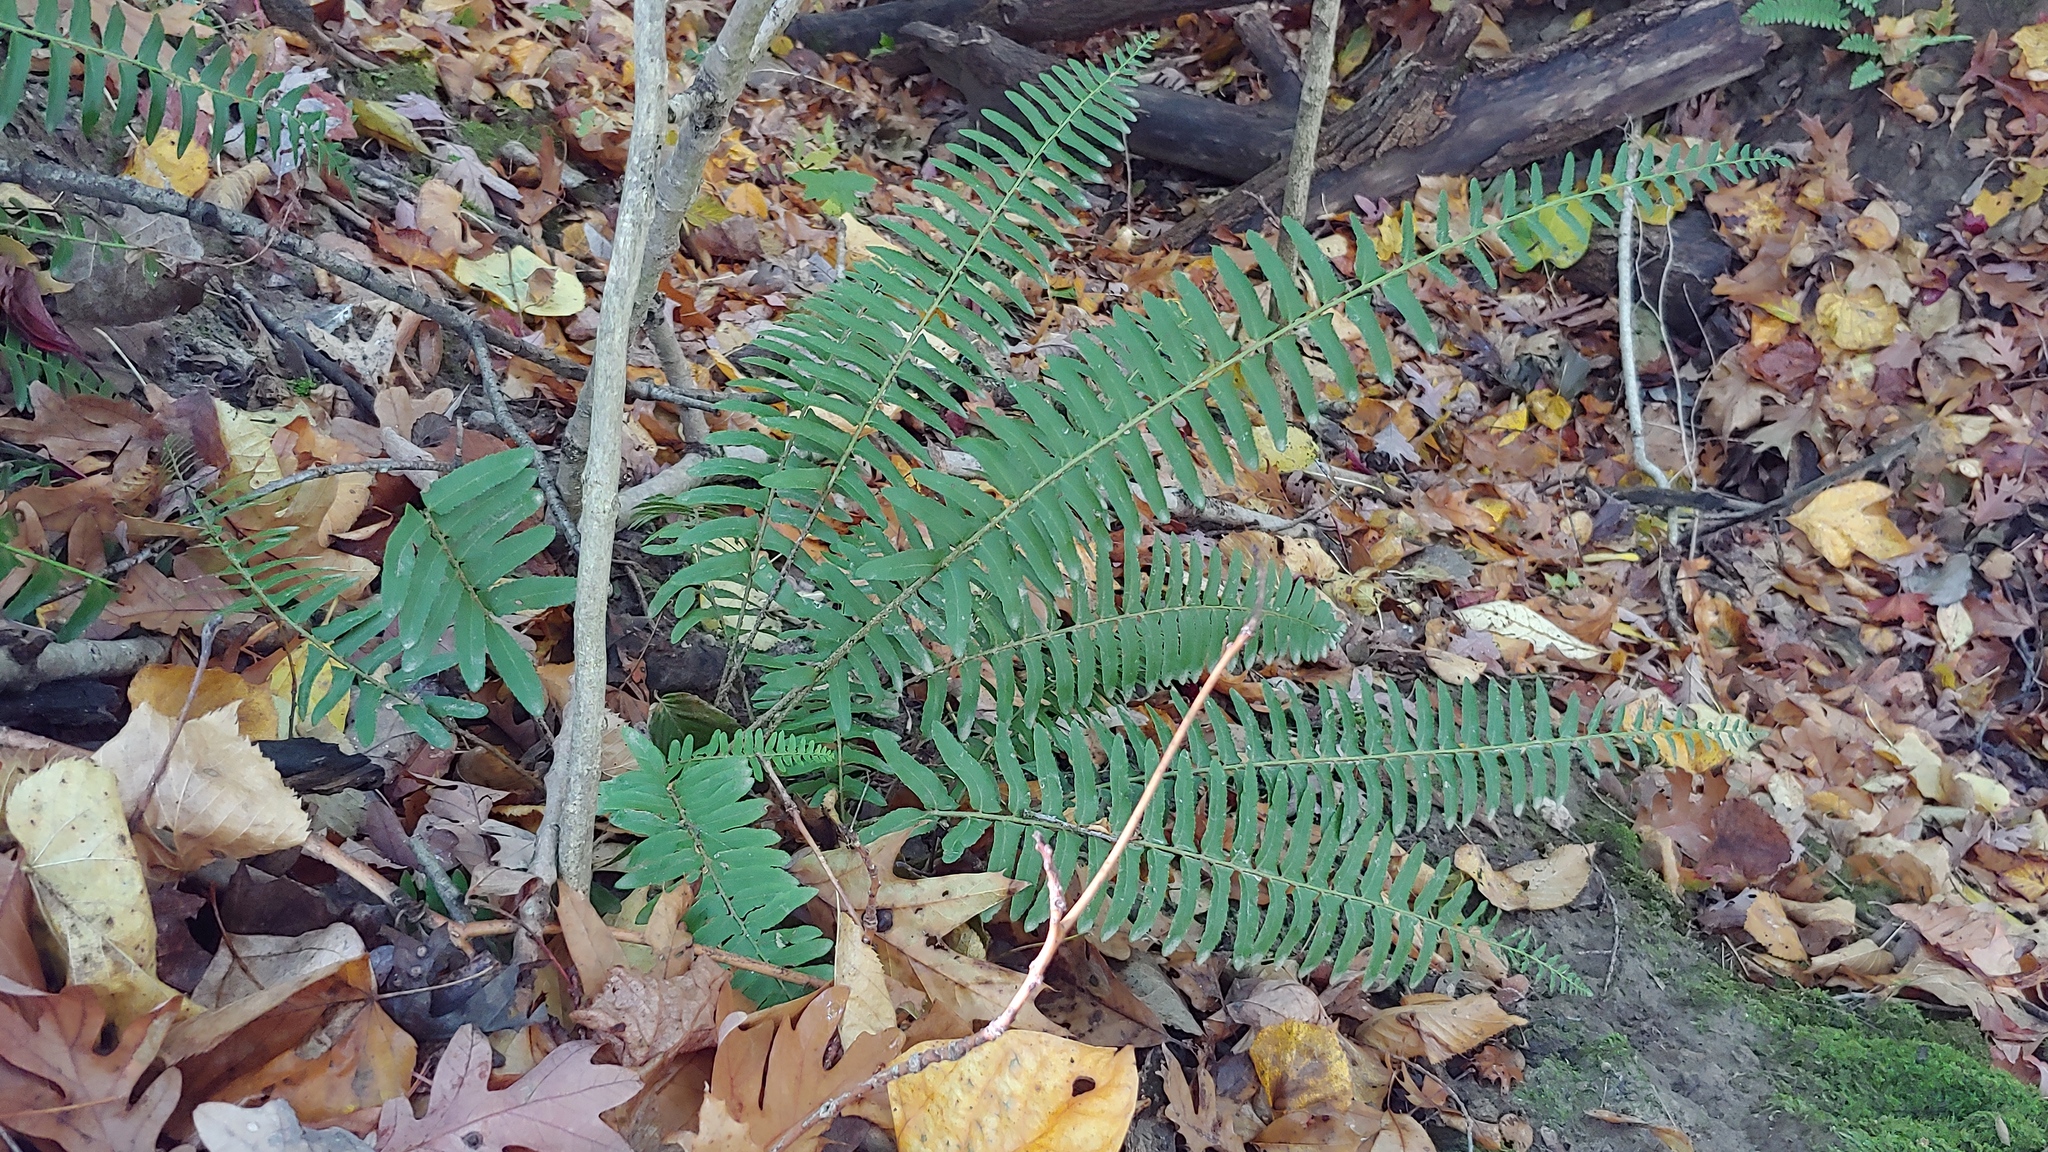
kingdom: Plantae
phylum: Tracheophyta
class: Polypodiopsida
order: Polypodiales
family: Dryopteridaceae
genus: Polystichum
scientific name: Polystichum acrostichoides
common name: Christmas fern
